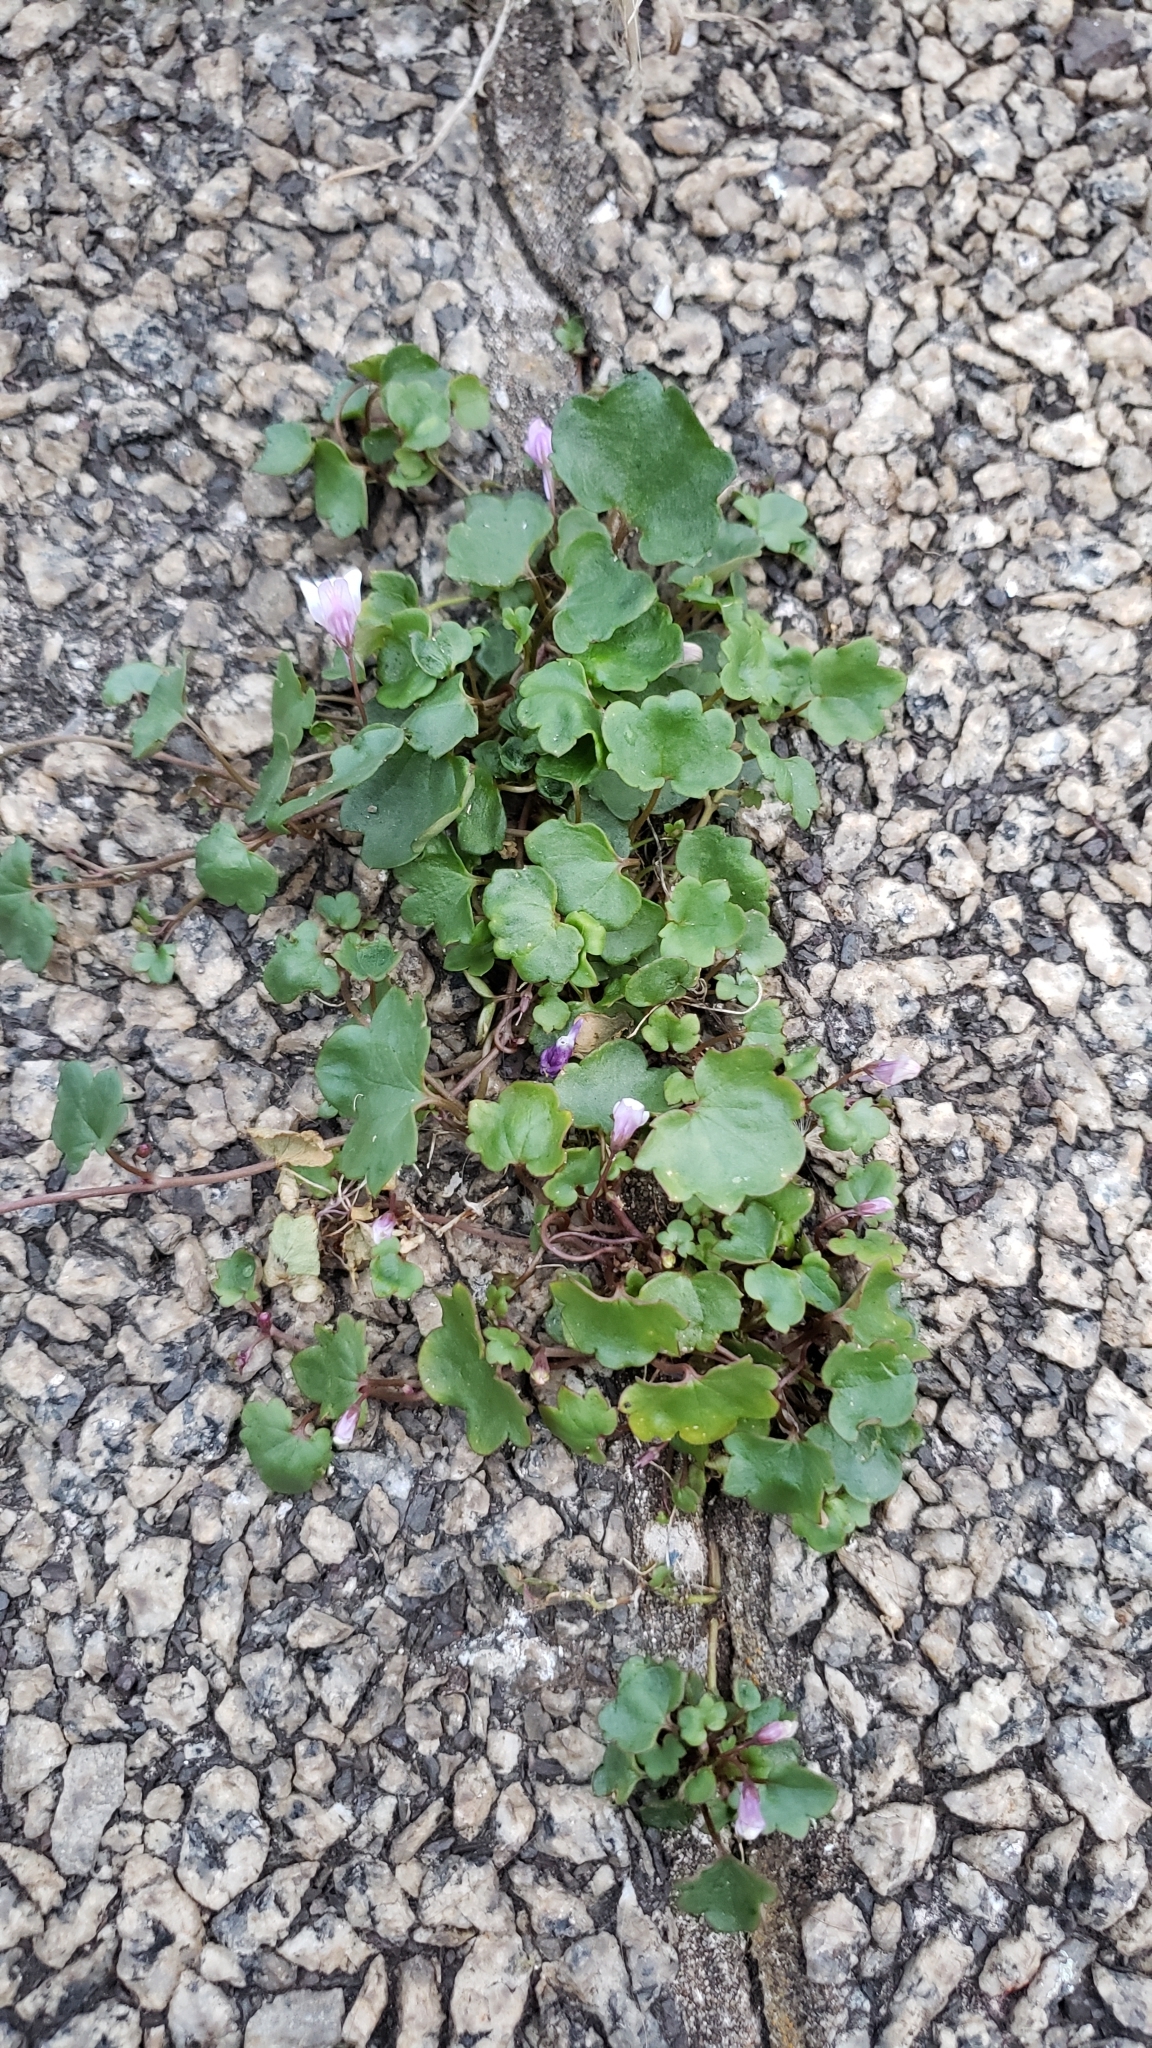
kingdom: Plantae
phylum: Tracheophyta
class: Magnoliopsida
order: Lamiales
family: Plantaginaceae
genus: Cymbalaria
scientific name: Cymbalaria muralis
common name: Ivy-leaved toadflax
